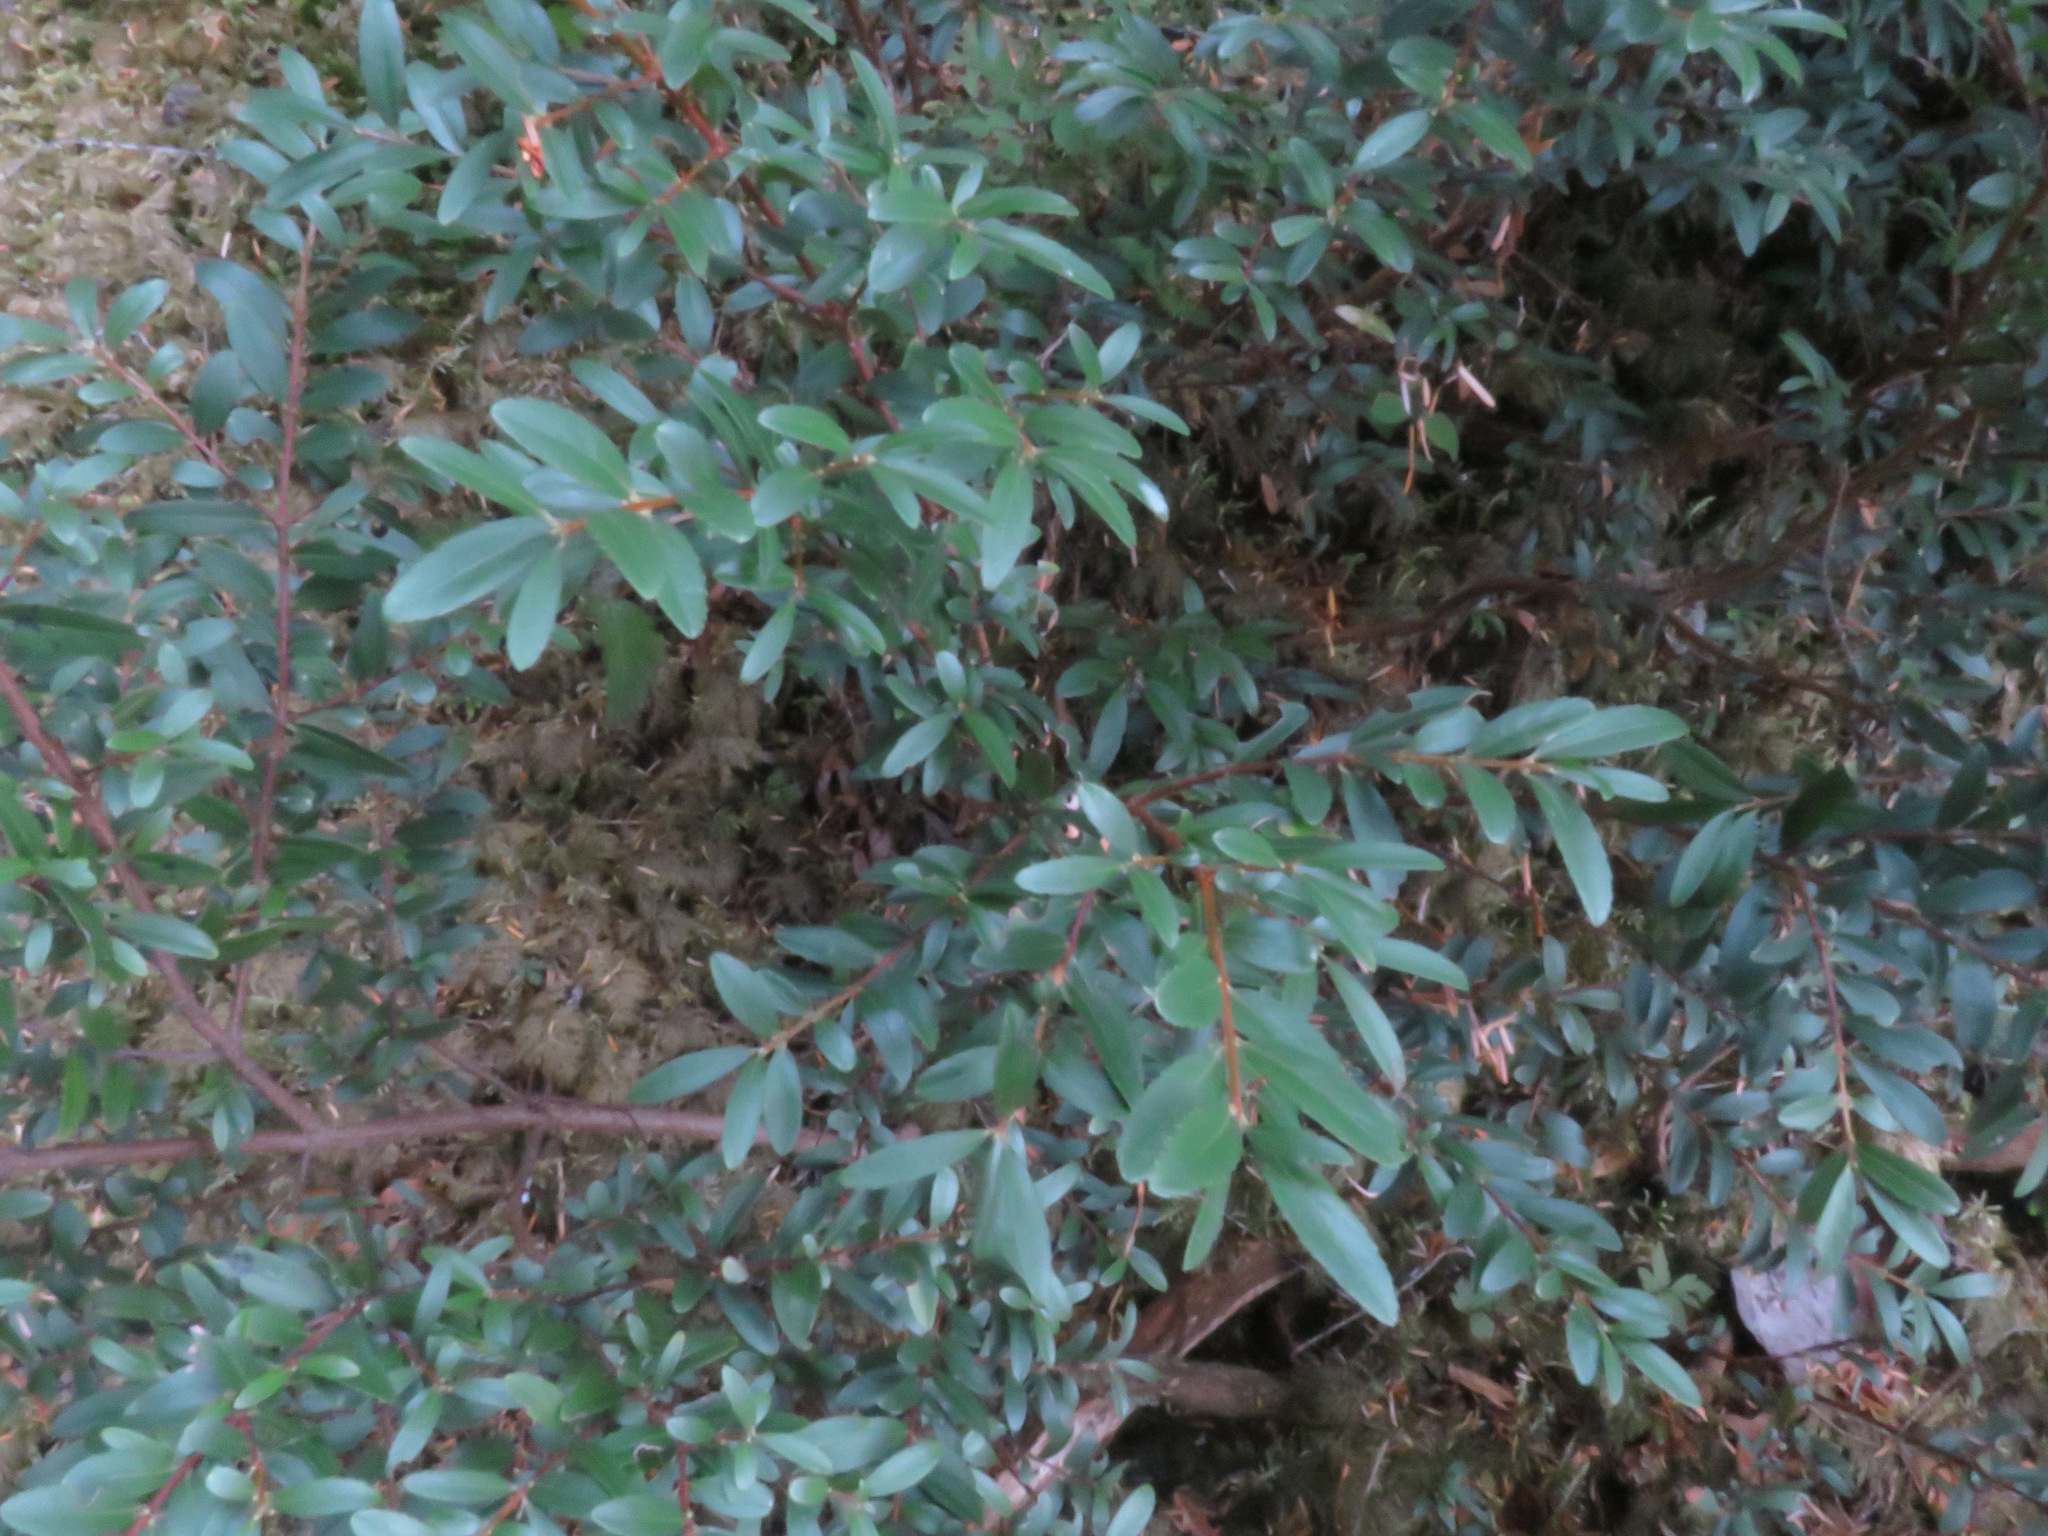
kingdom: Plantae
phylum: Tracheophyta
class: Magnoliopsida
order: Celastrales
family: Celastraceae
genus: Paxistima
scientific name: Paxistima myrsinites
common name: Mountain-lover
